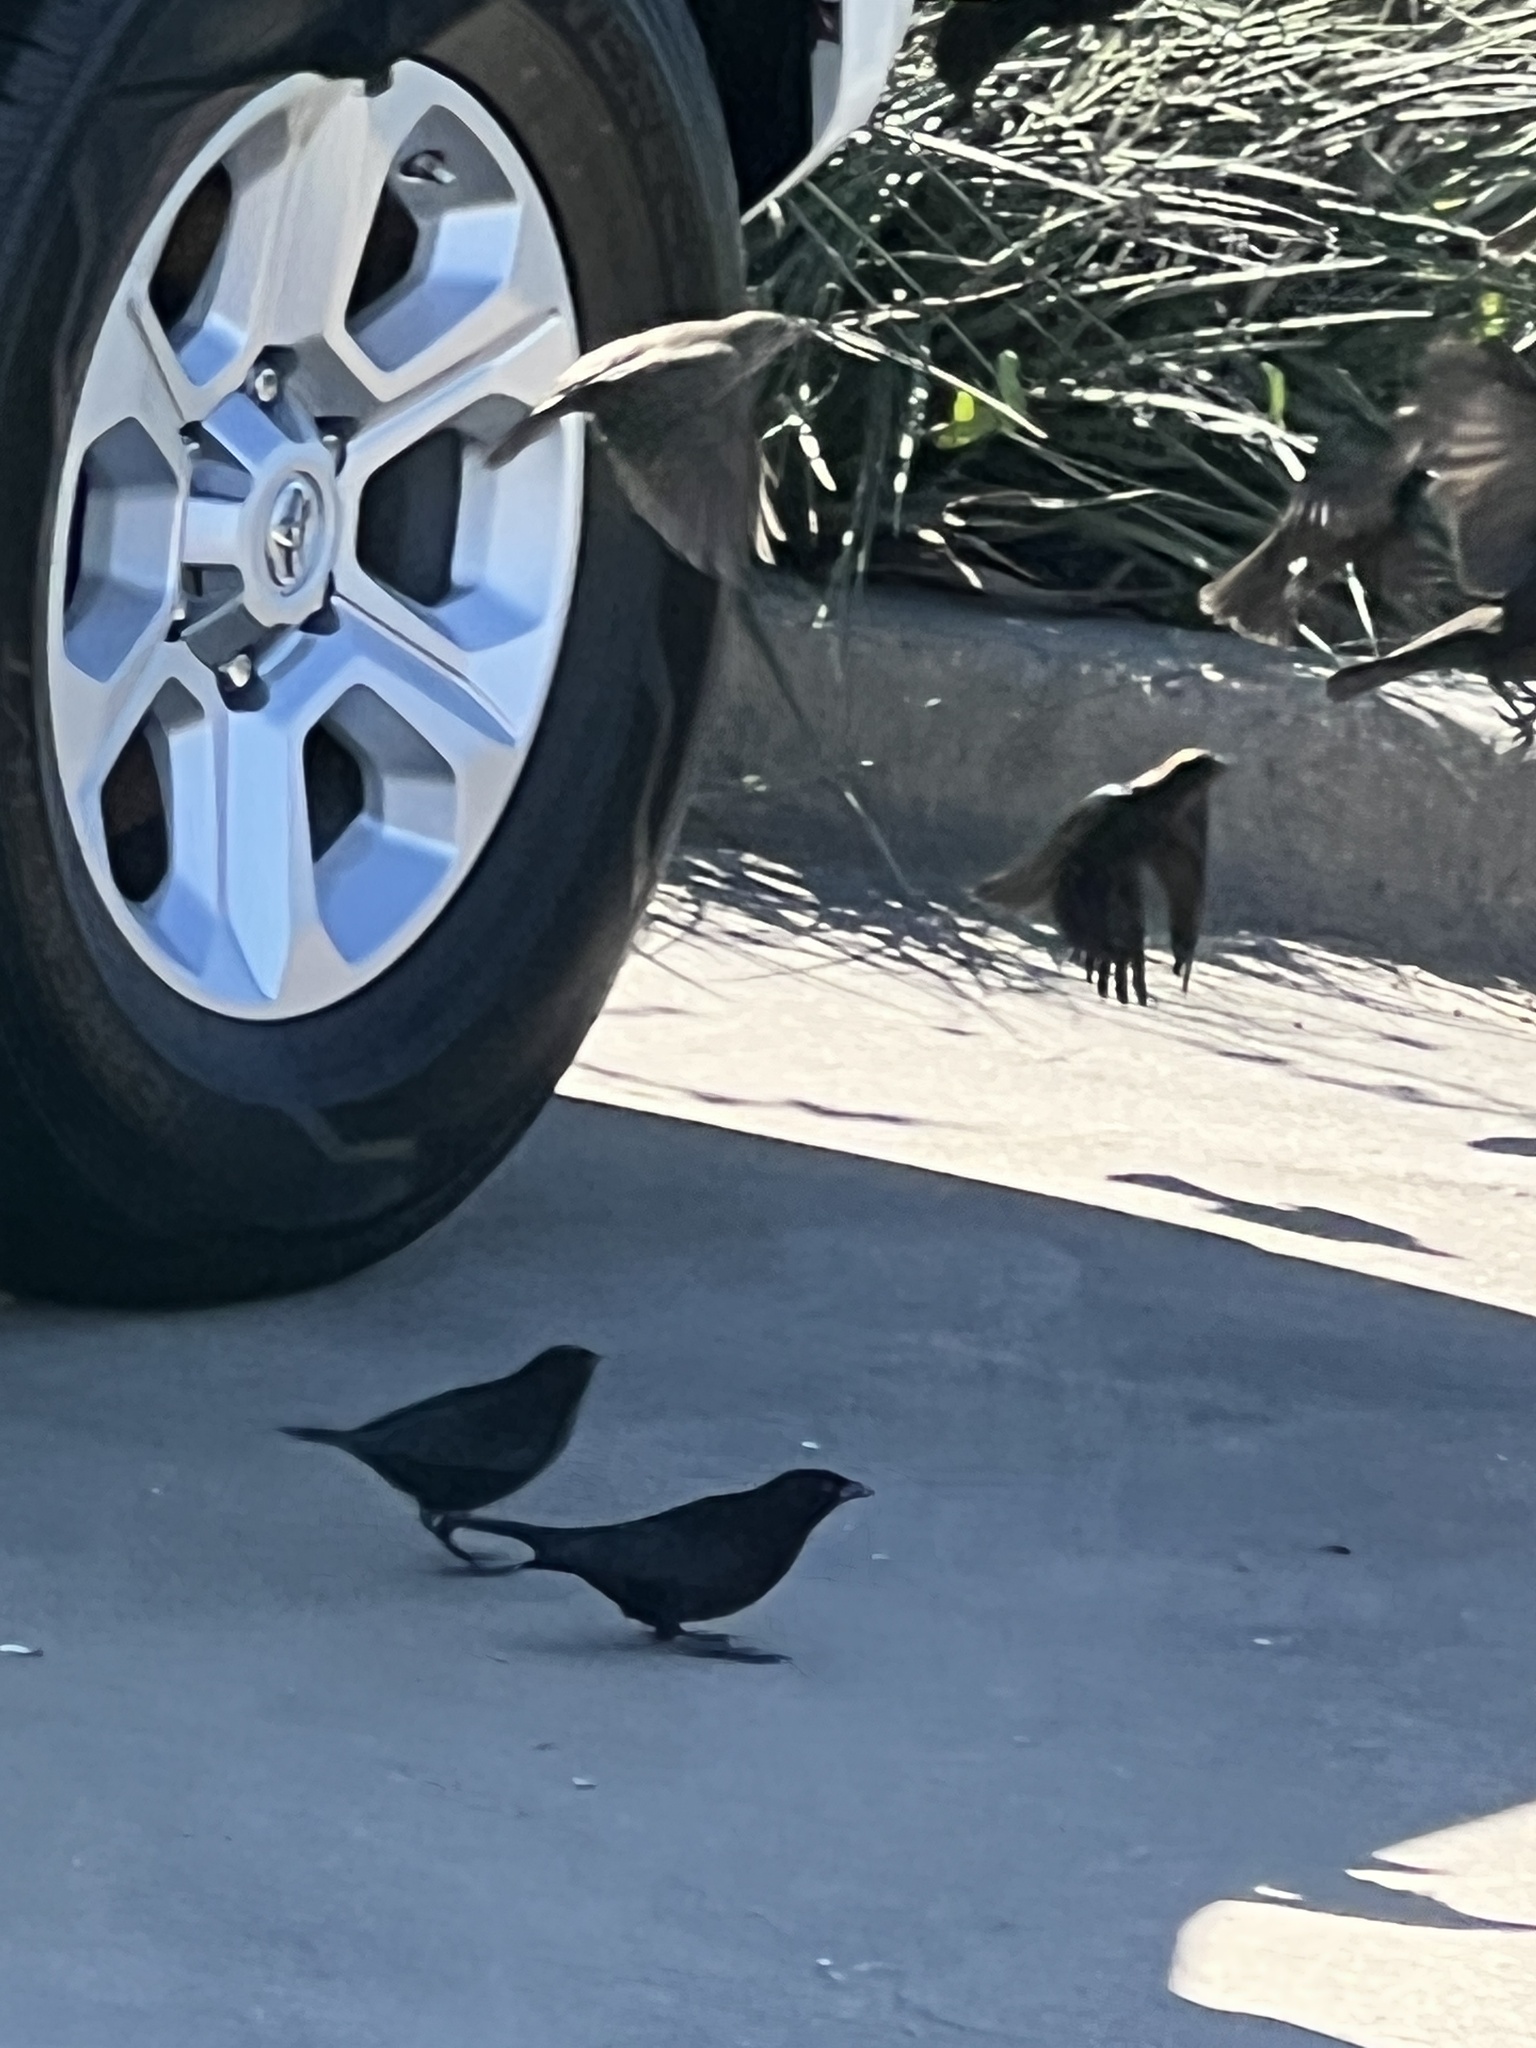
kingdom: Animalia
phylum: Chordata
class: Aves
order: Passeriformes
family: Icteridae
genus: Molothrus
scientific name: Molothrus aeneus
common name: Bronzed cowbird
